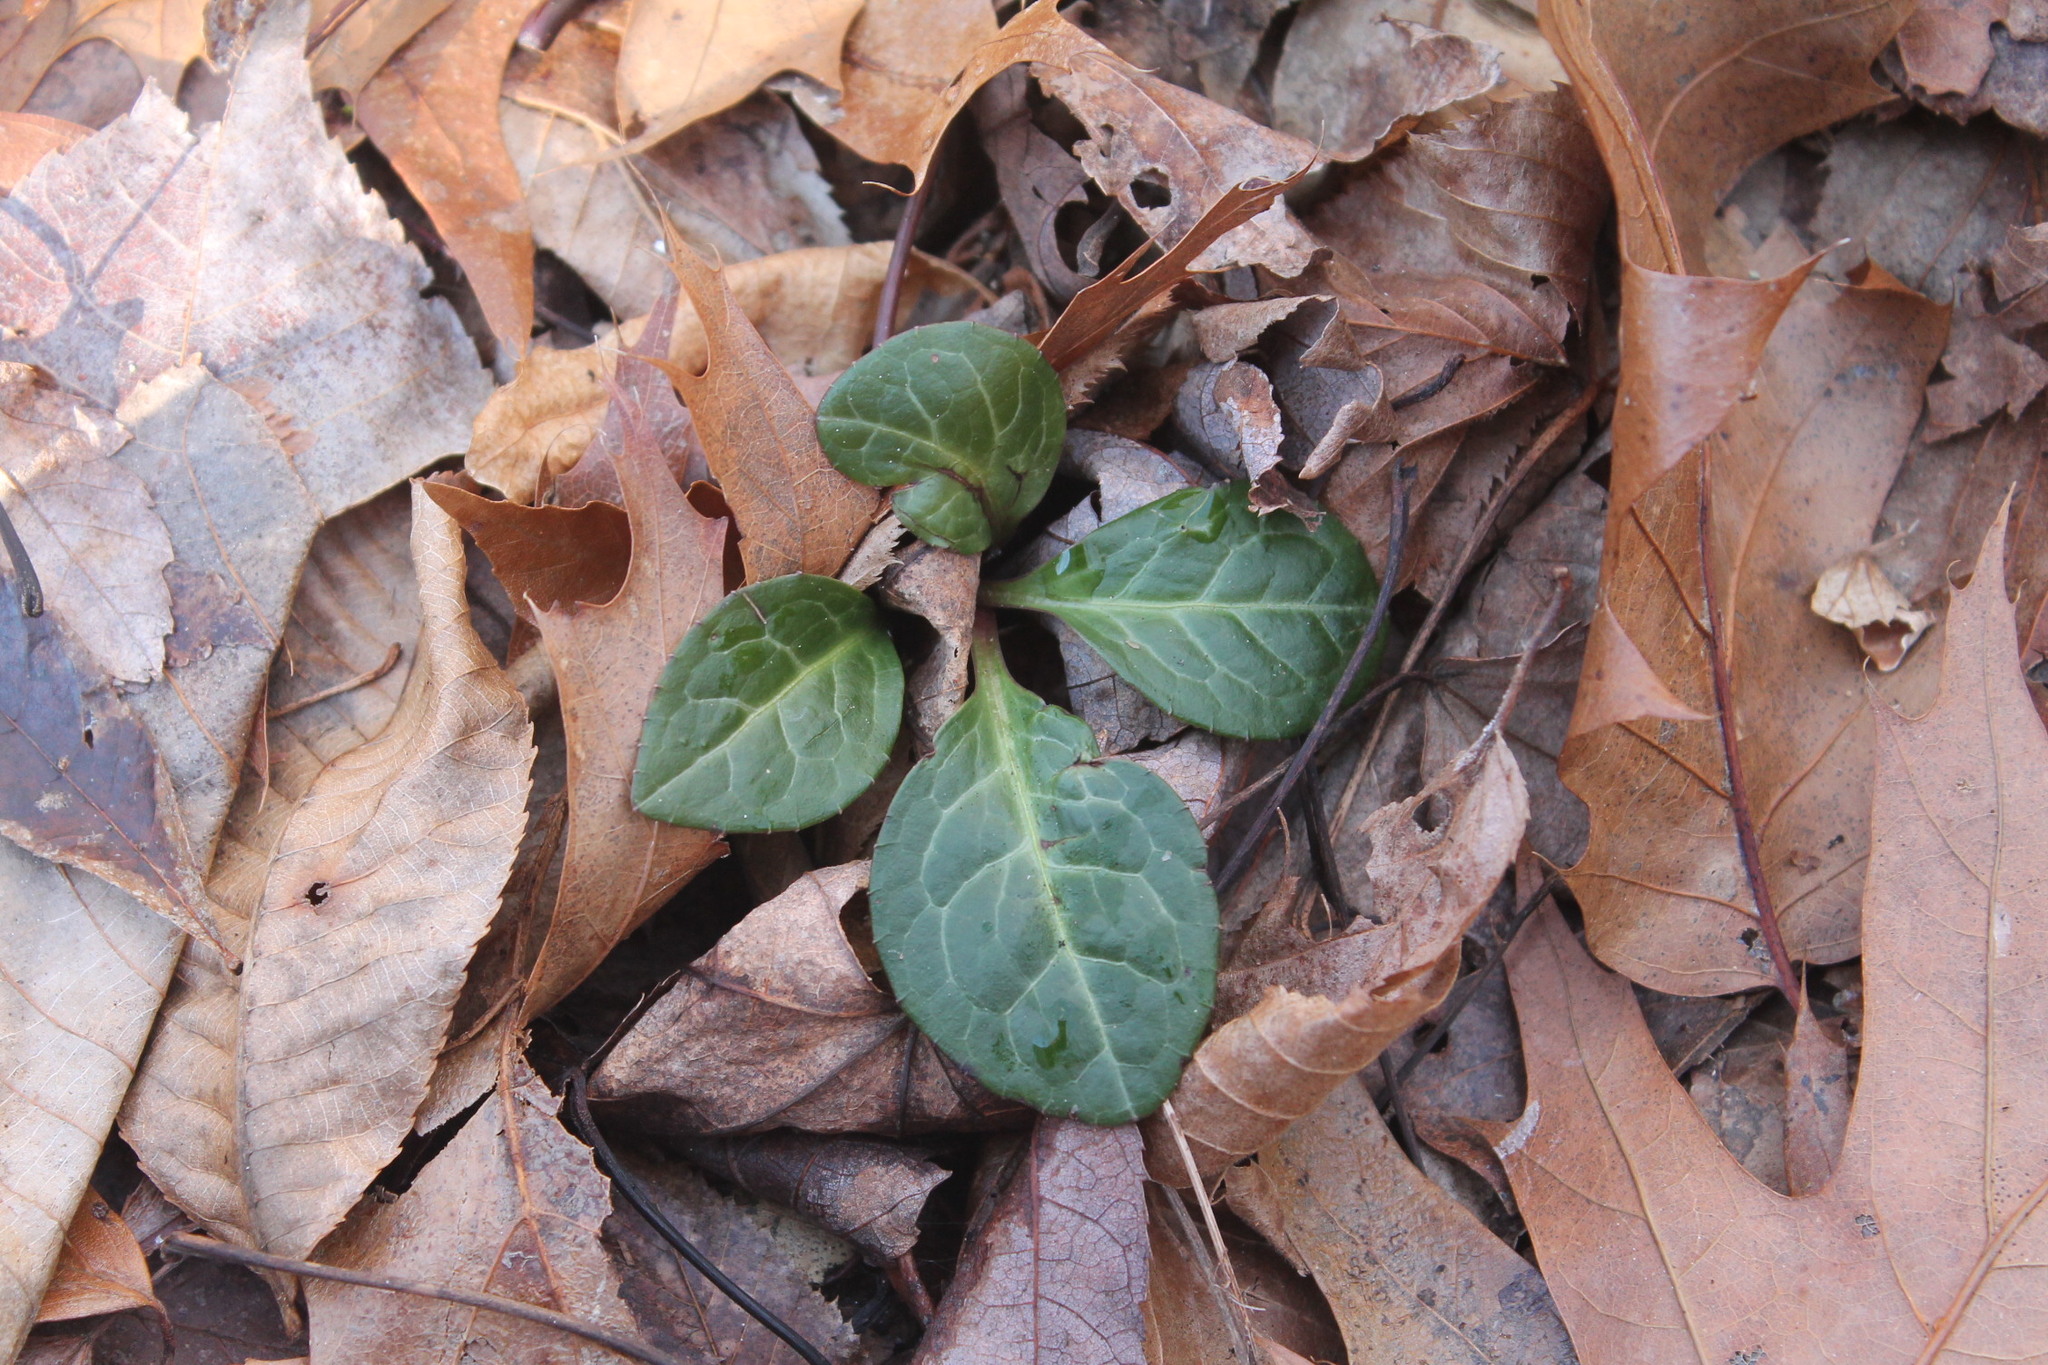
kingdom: Plantae
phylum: Tracheophyta
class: Magnoliopsida
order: Ericales
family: Ericaceae
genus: Pyrola
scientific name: Pyrola americana
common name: American wintergreen
